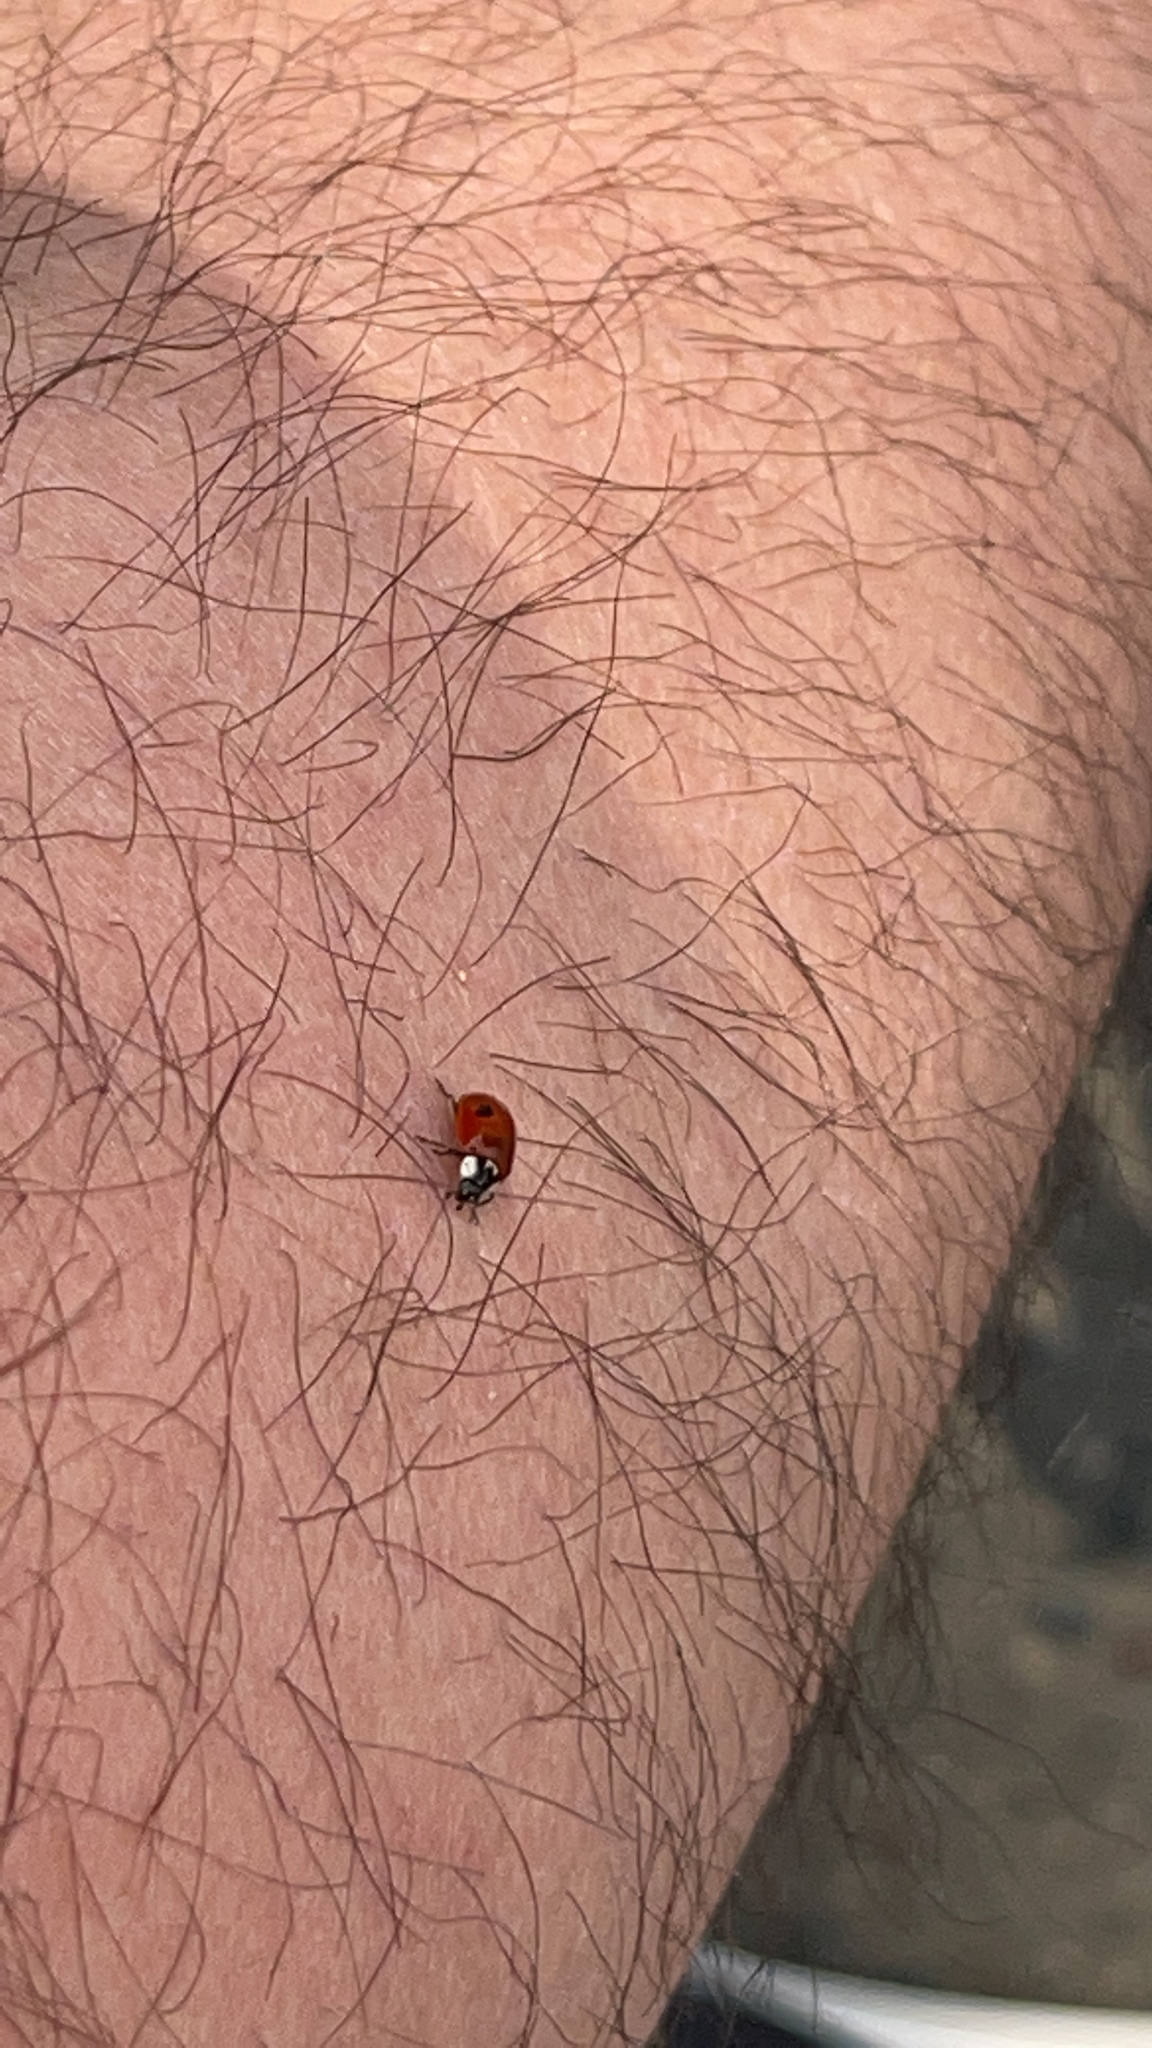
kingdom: Animalia
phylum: Arthropoda
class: Insecta
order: Coleoptera
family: Coccinellidae
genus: Adalia
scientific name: Adalia bipunctata
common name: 2-spot ladybird
